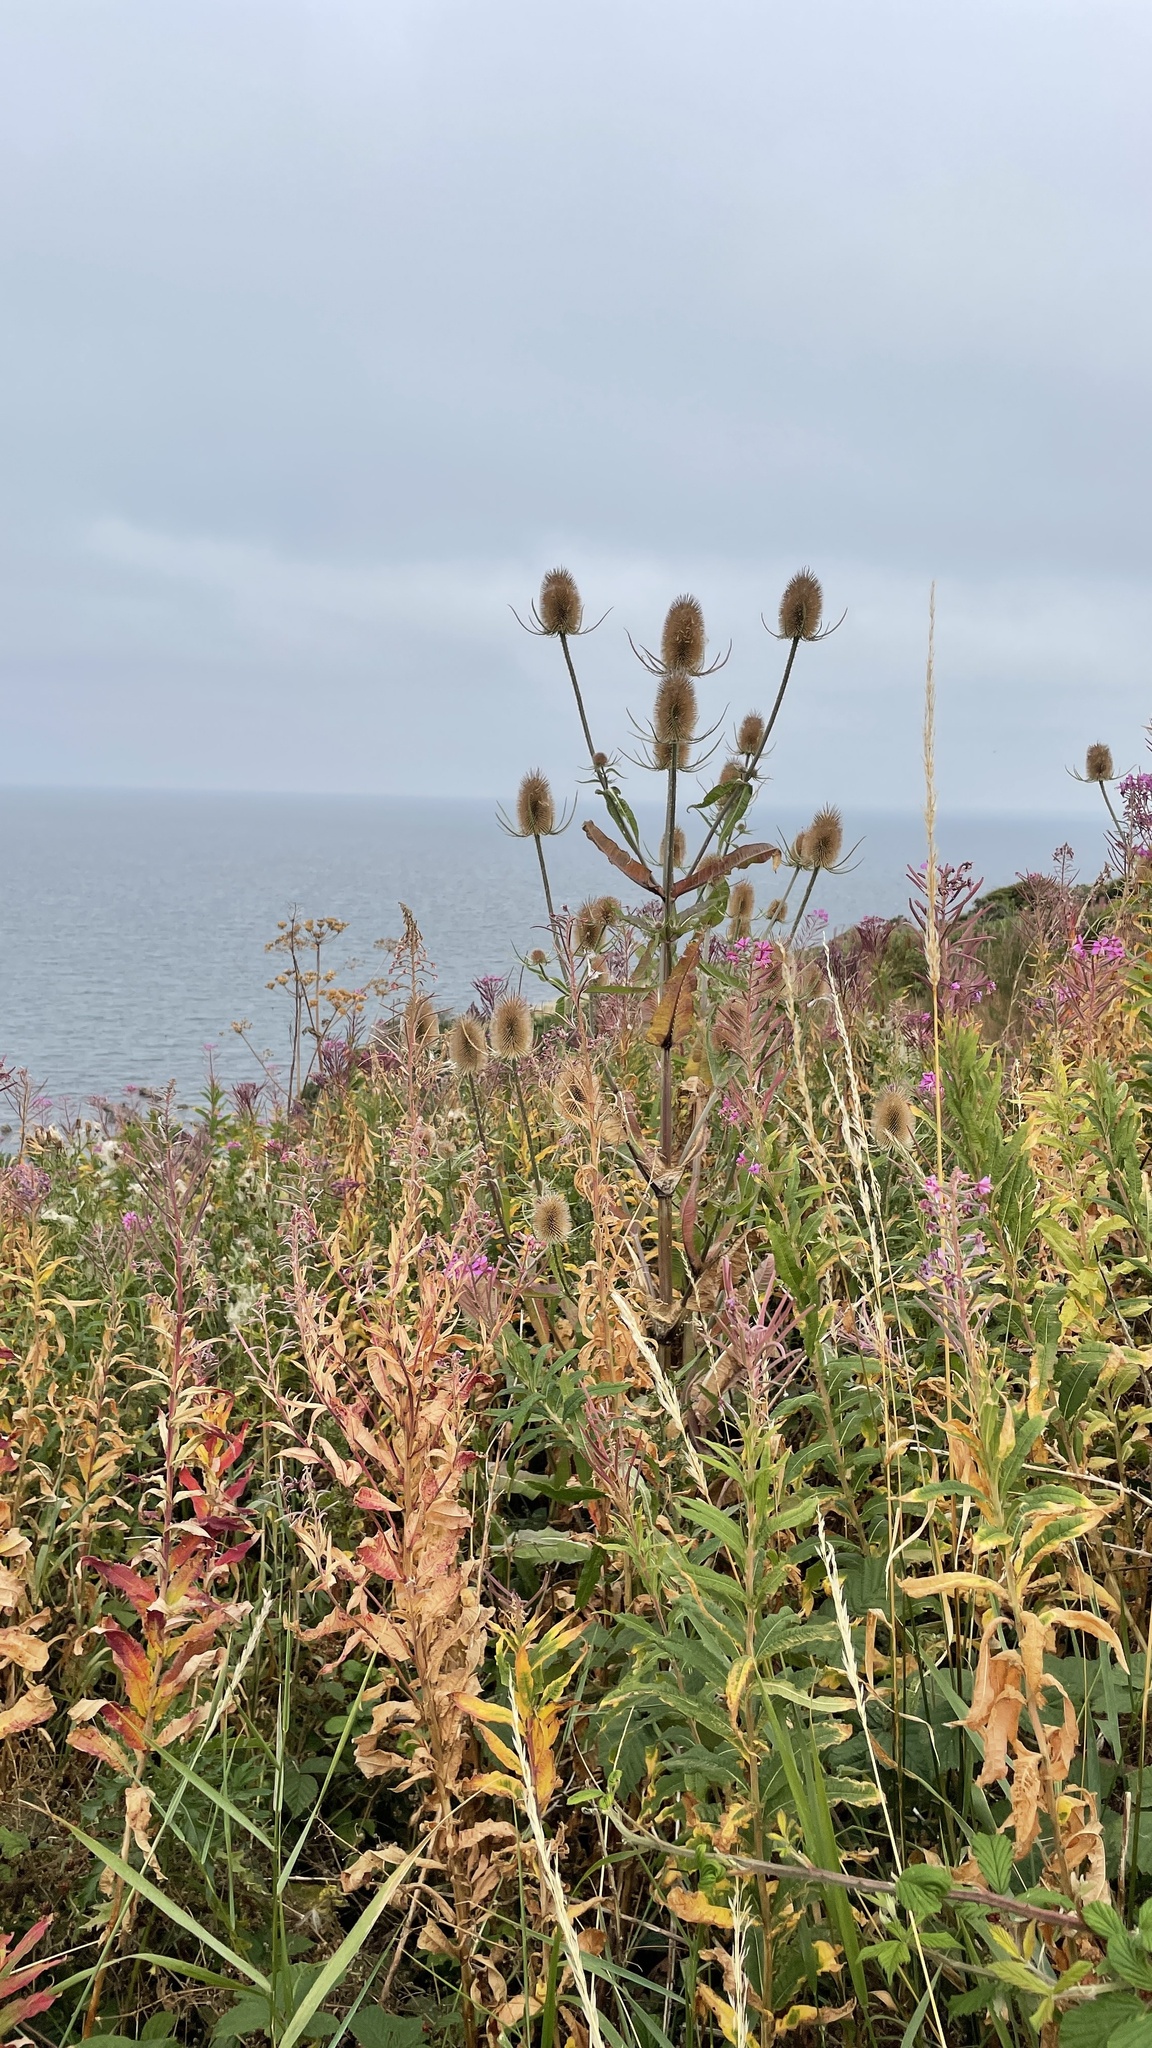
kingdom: Plantae
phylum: Tracheophyta
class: Magnoliopsida
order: Dipsacales
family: Caprifoliaceae
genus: Dipsacus
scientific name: Dipsacus fullonum
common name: Teasel
